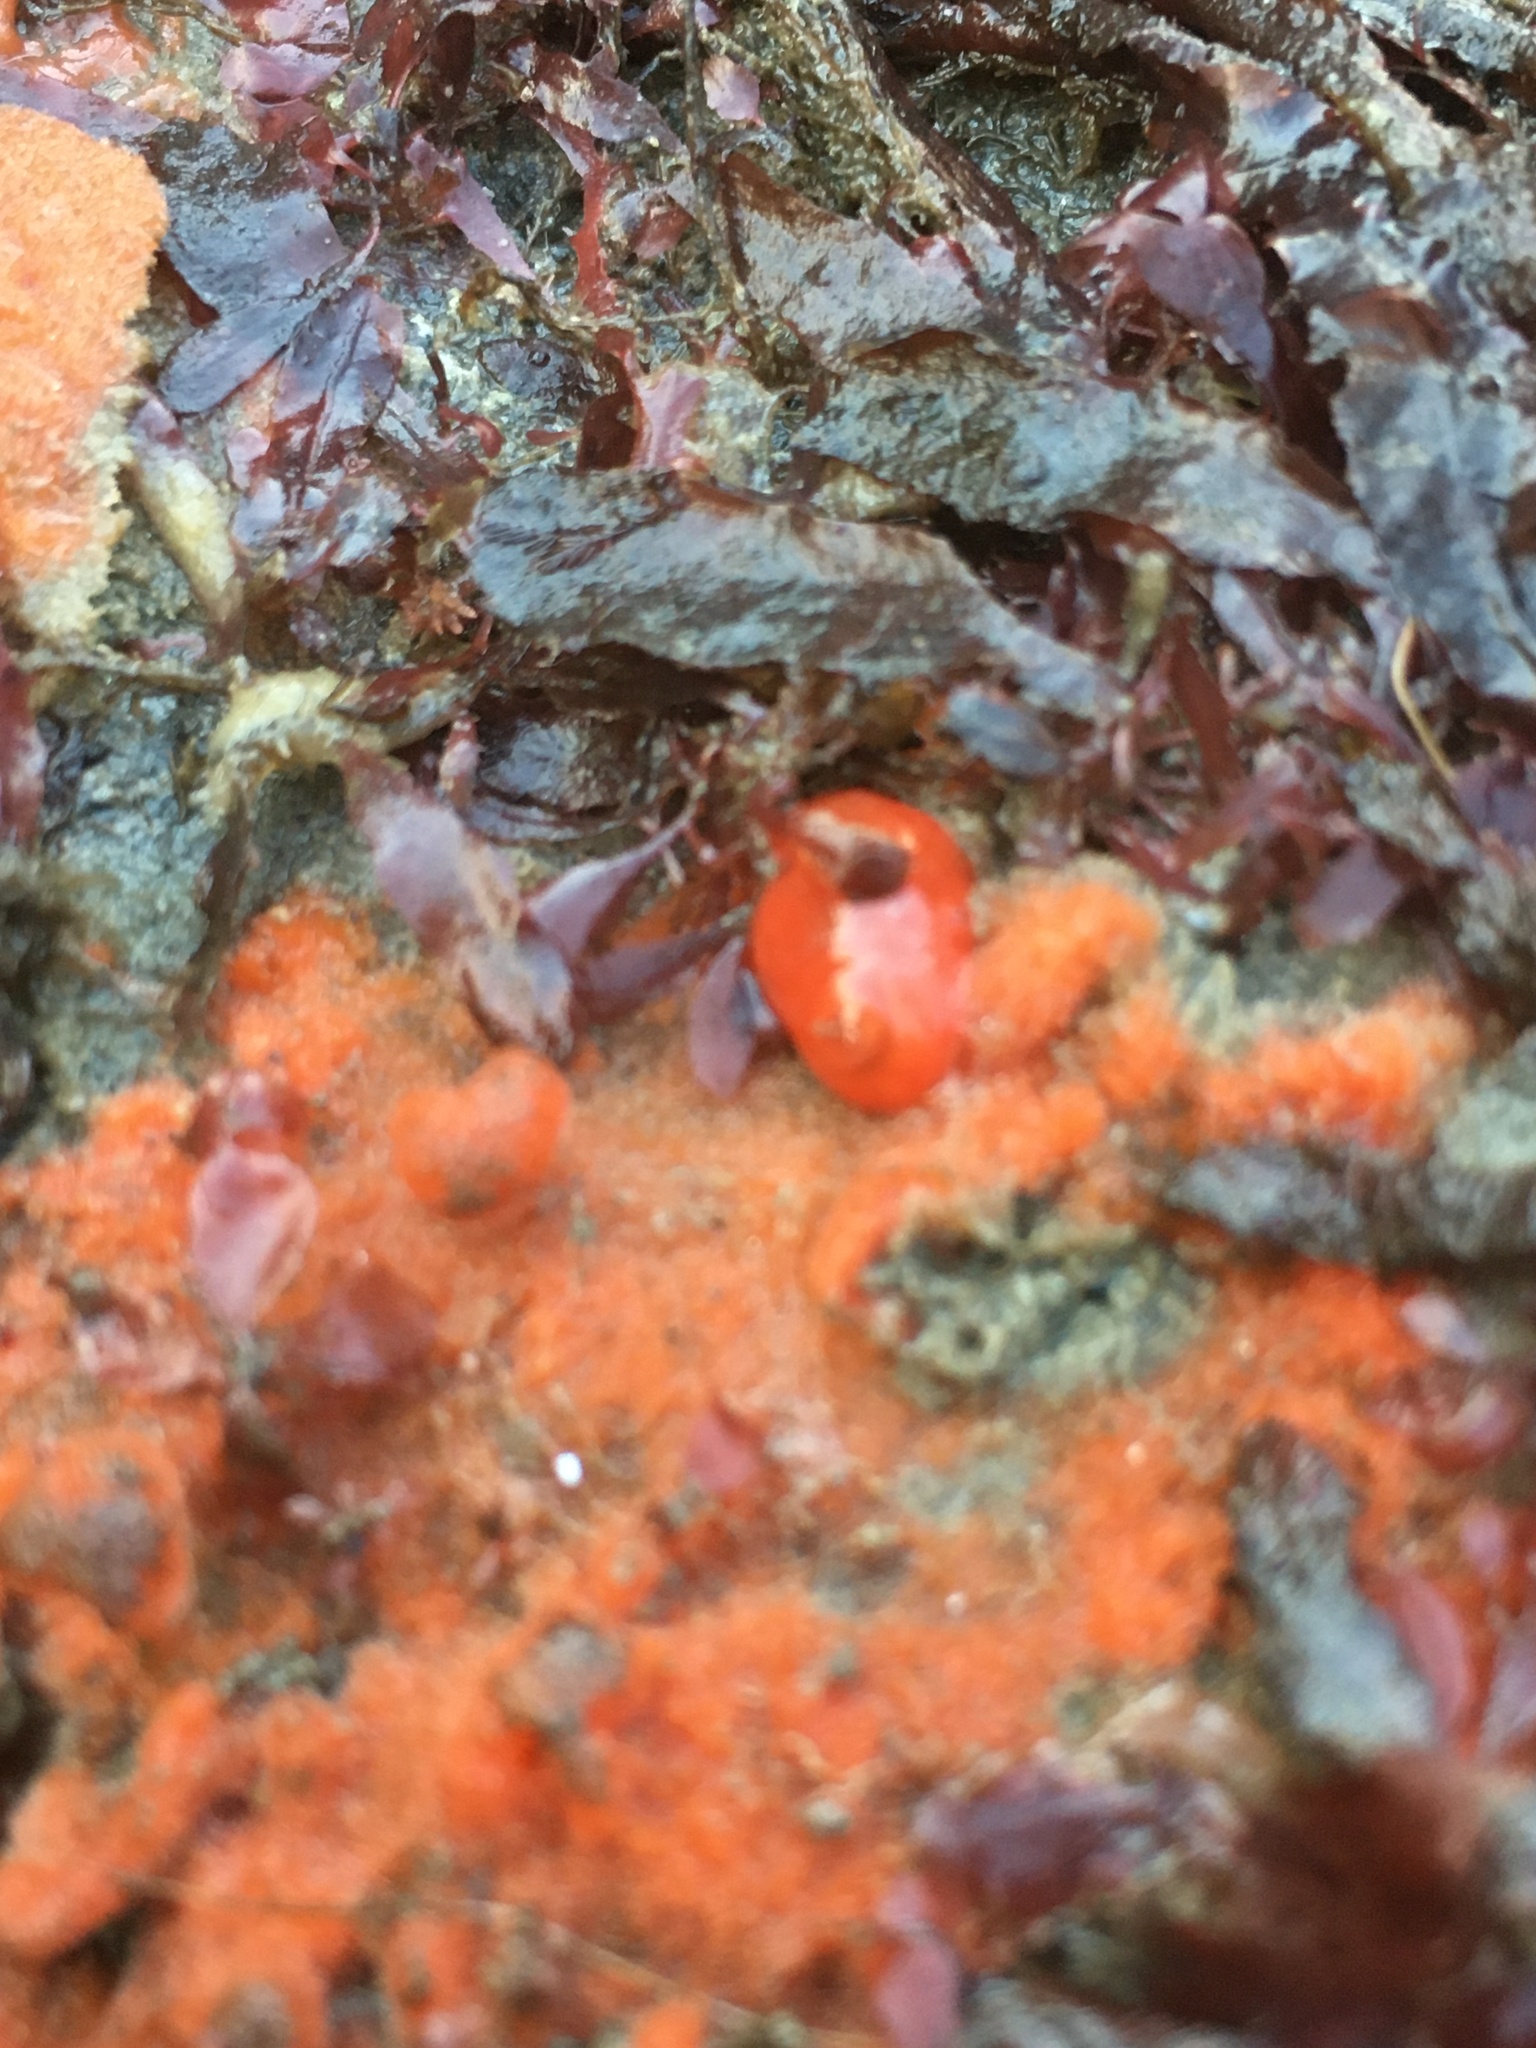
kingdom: Animalia
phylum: Mollusca
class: Gastropoda
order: Nudibranchia
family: Discodorididae
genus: Rostanga
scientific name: Rostanga pulchra
